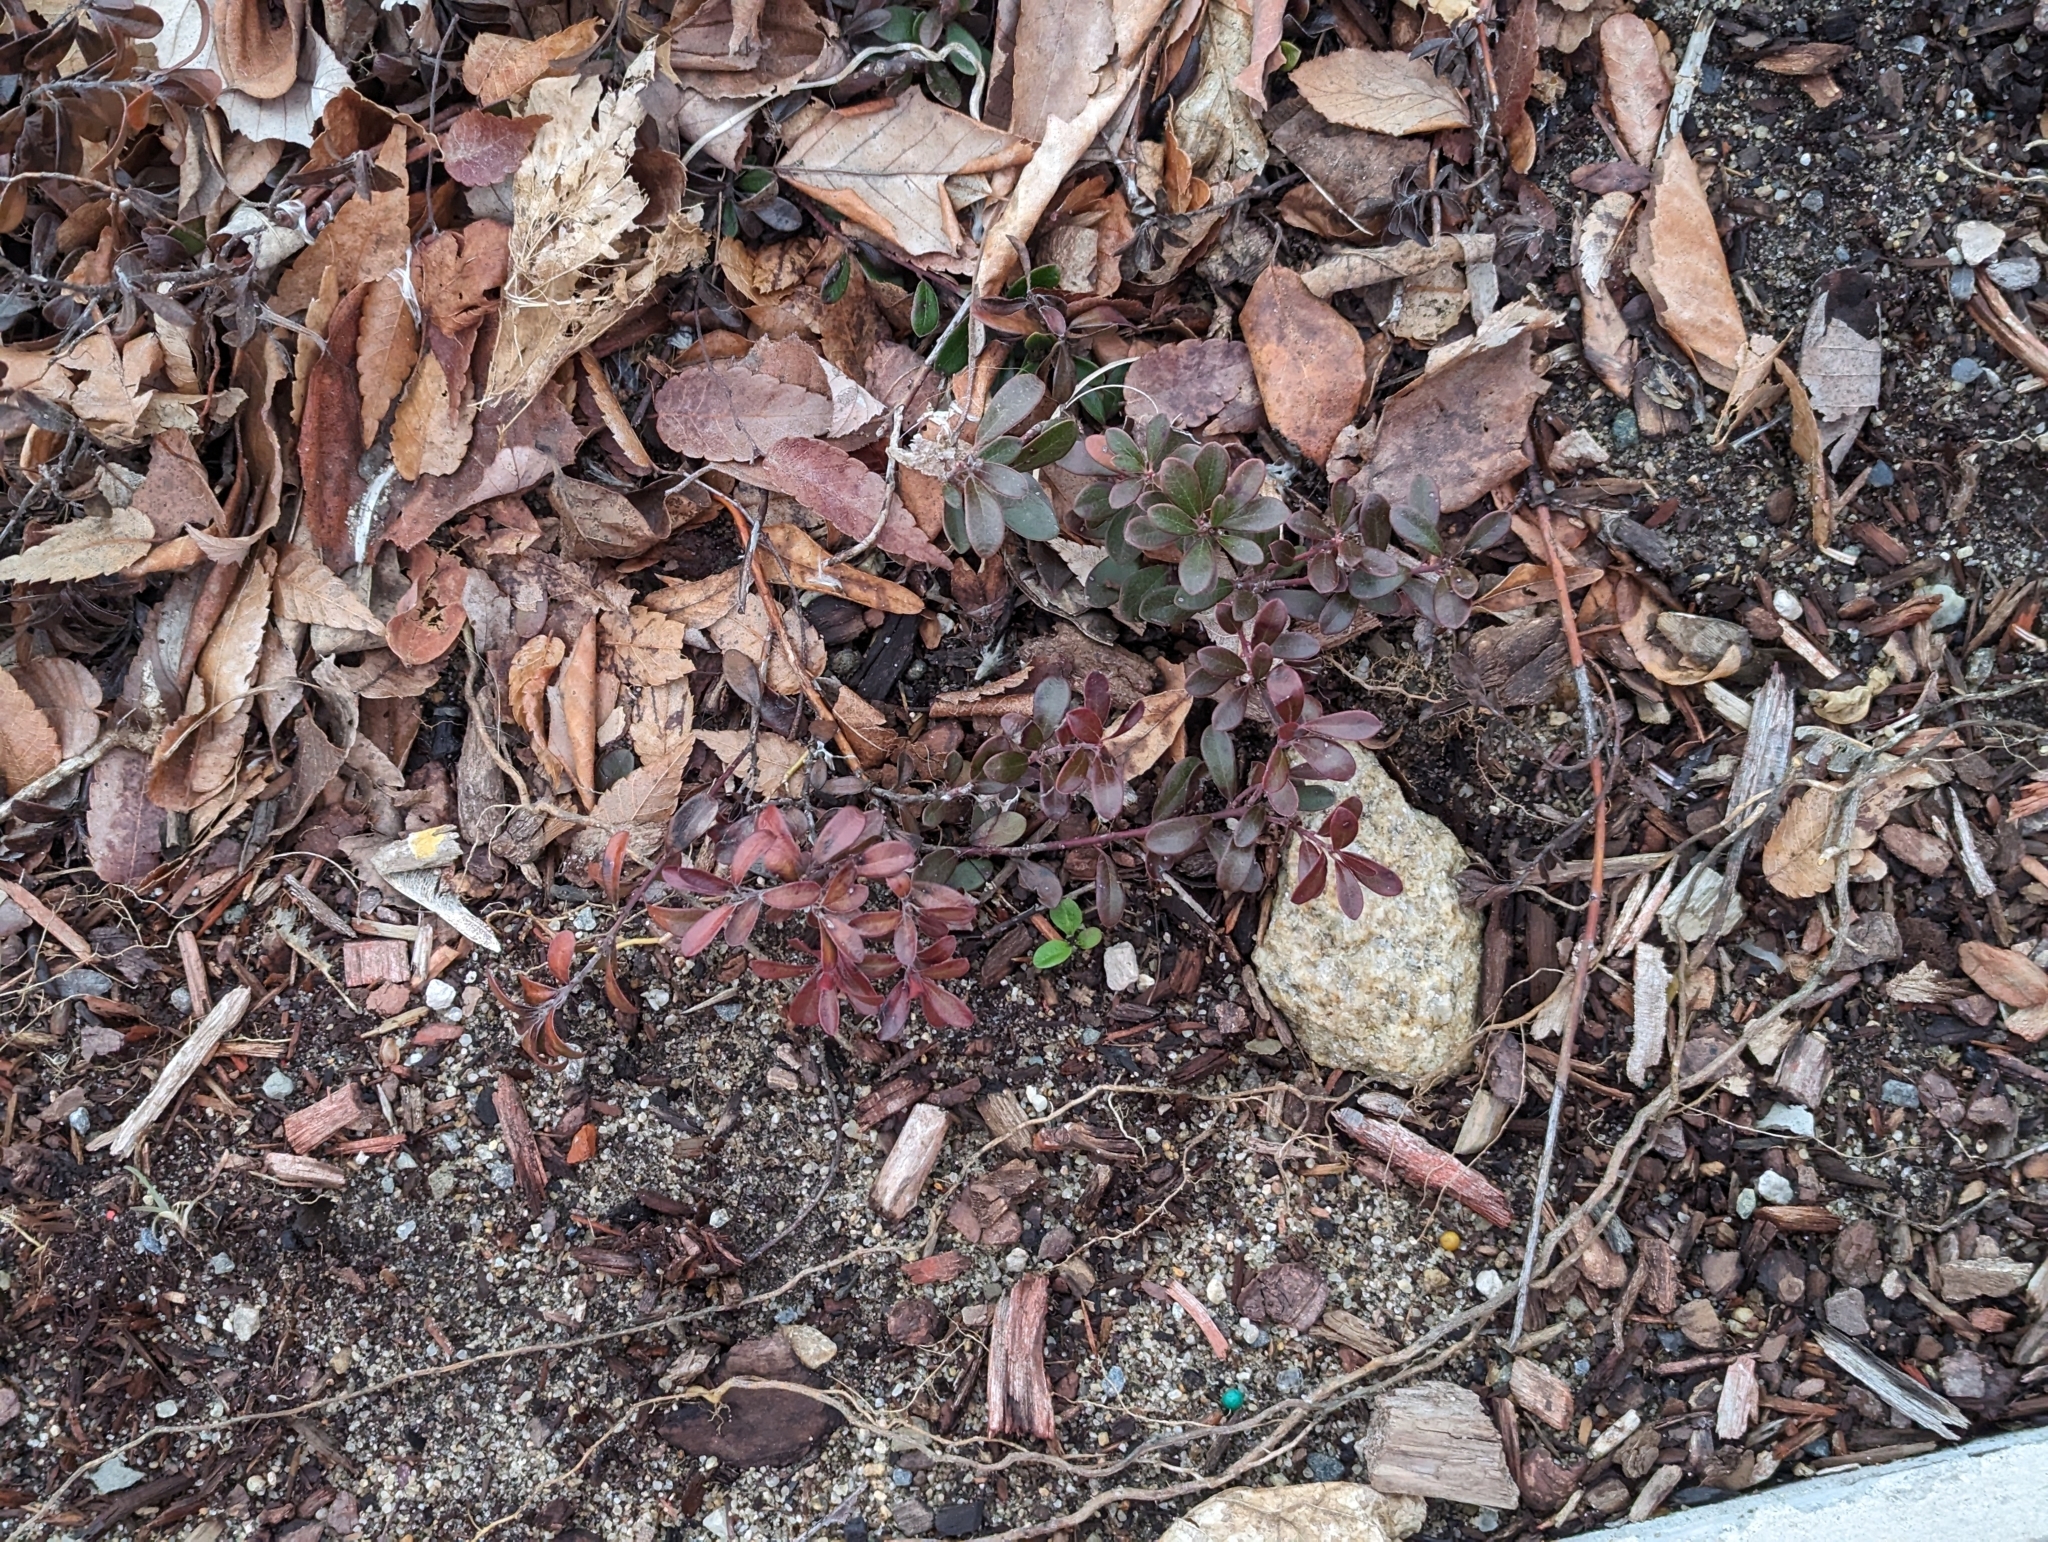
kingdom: Plantae
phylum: Tracheophyta
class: Magnoliopsida
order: Ericales
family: Ericaceae
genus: Arctostaphylos
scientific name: Arctostaphylos uva-ursi
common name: Bearberry
